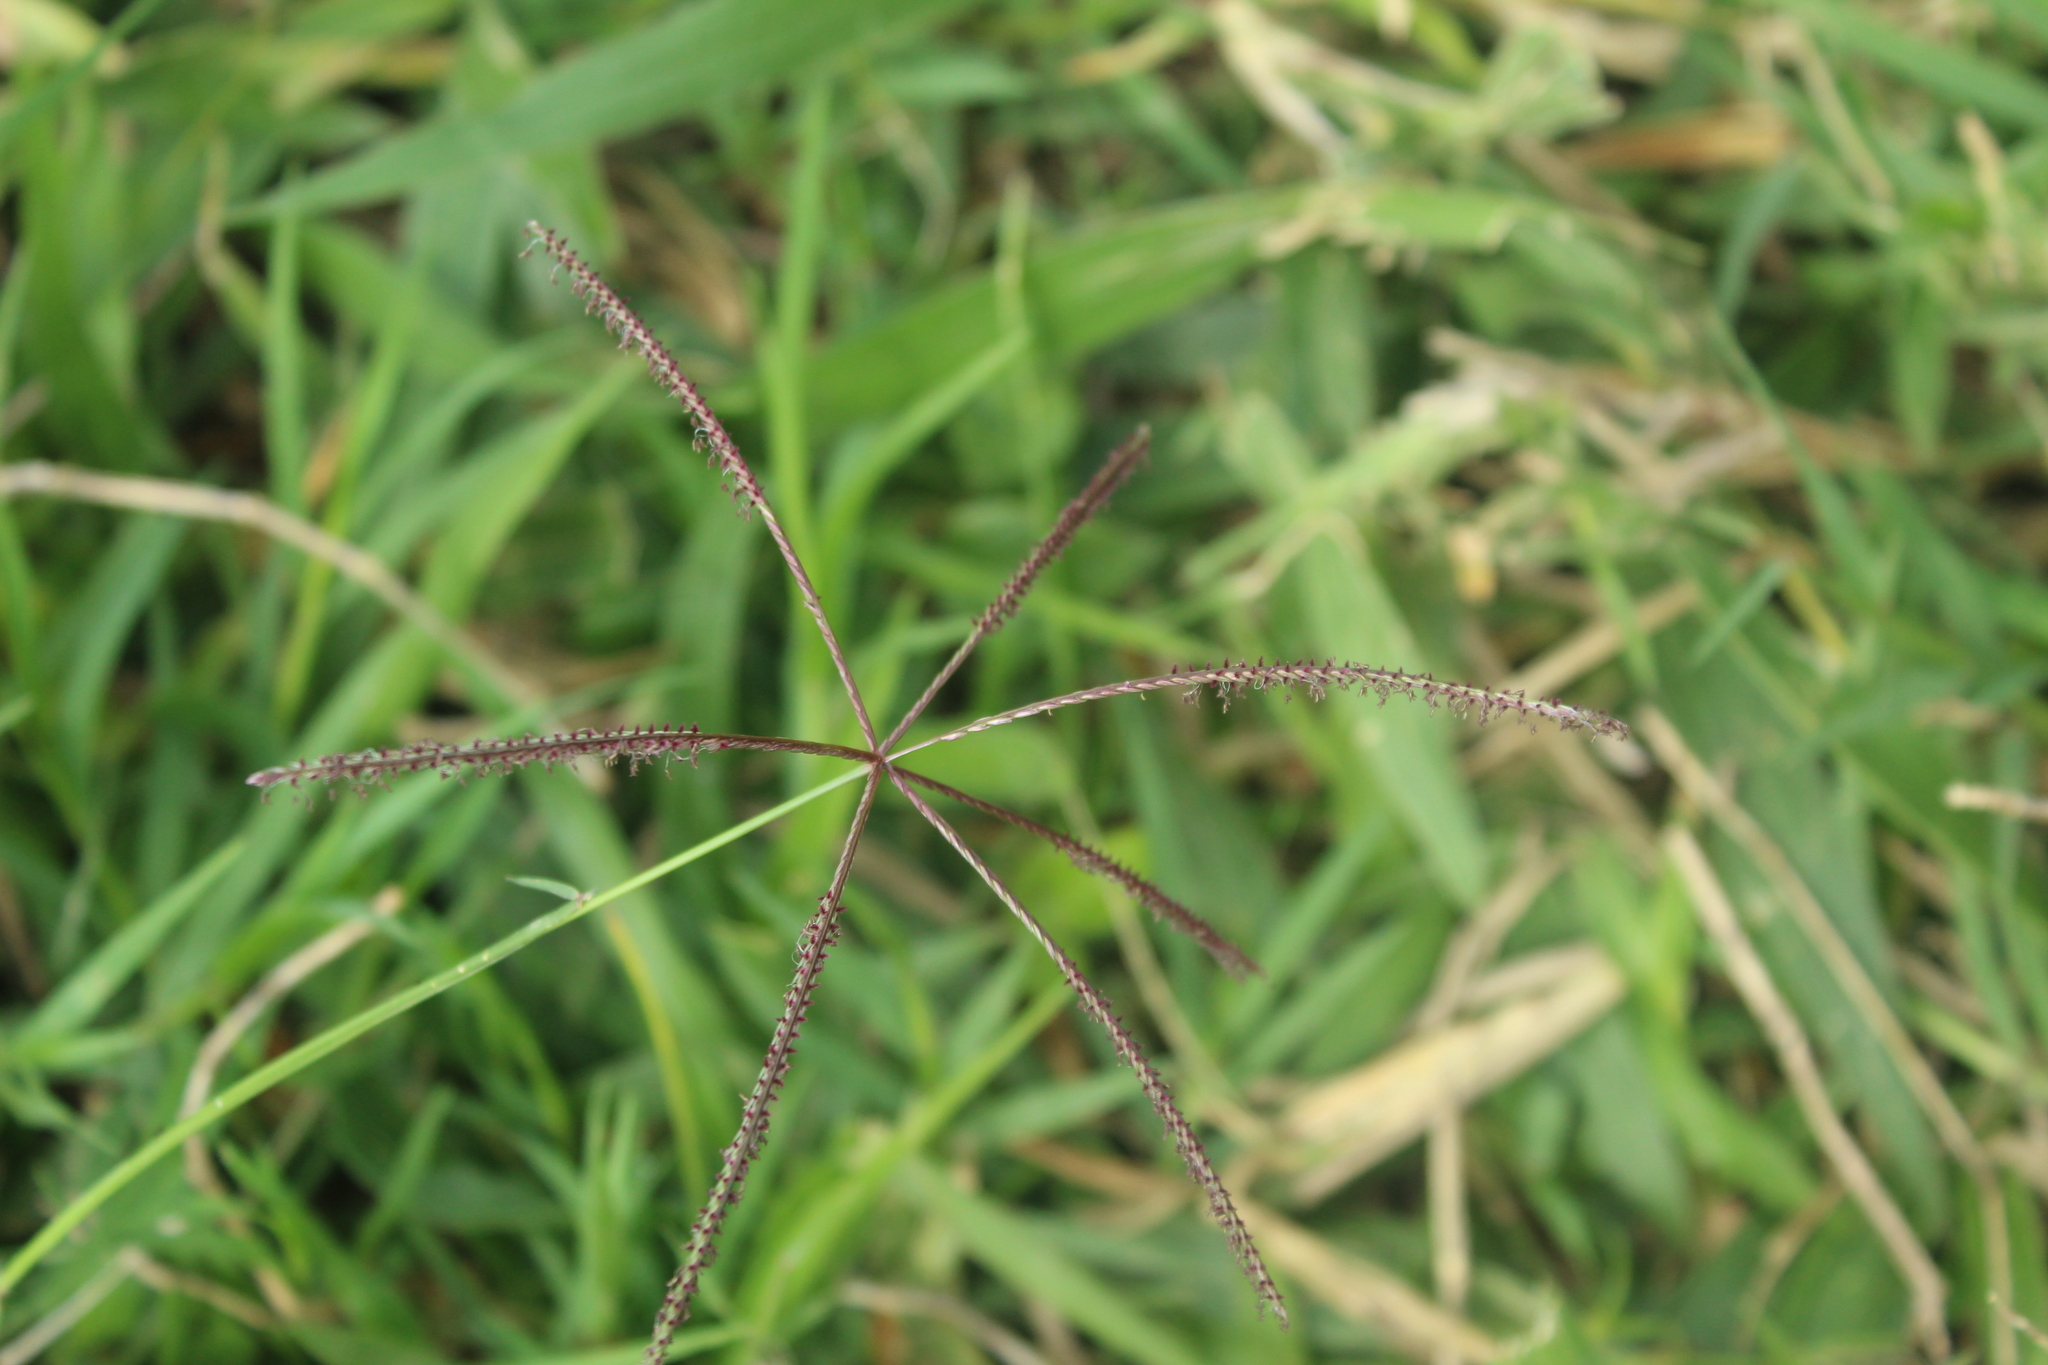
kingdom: Plantae
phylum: Tracheophyta
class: Liliopsida
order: Poales
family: Poaceae
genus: Cynodon
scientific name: Cynodon dactylon
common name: Bermuda grass
